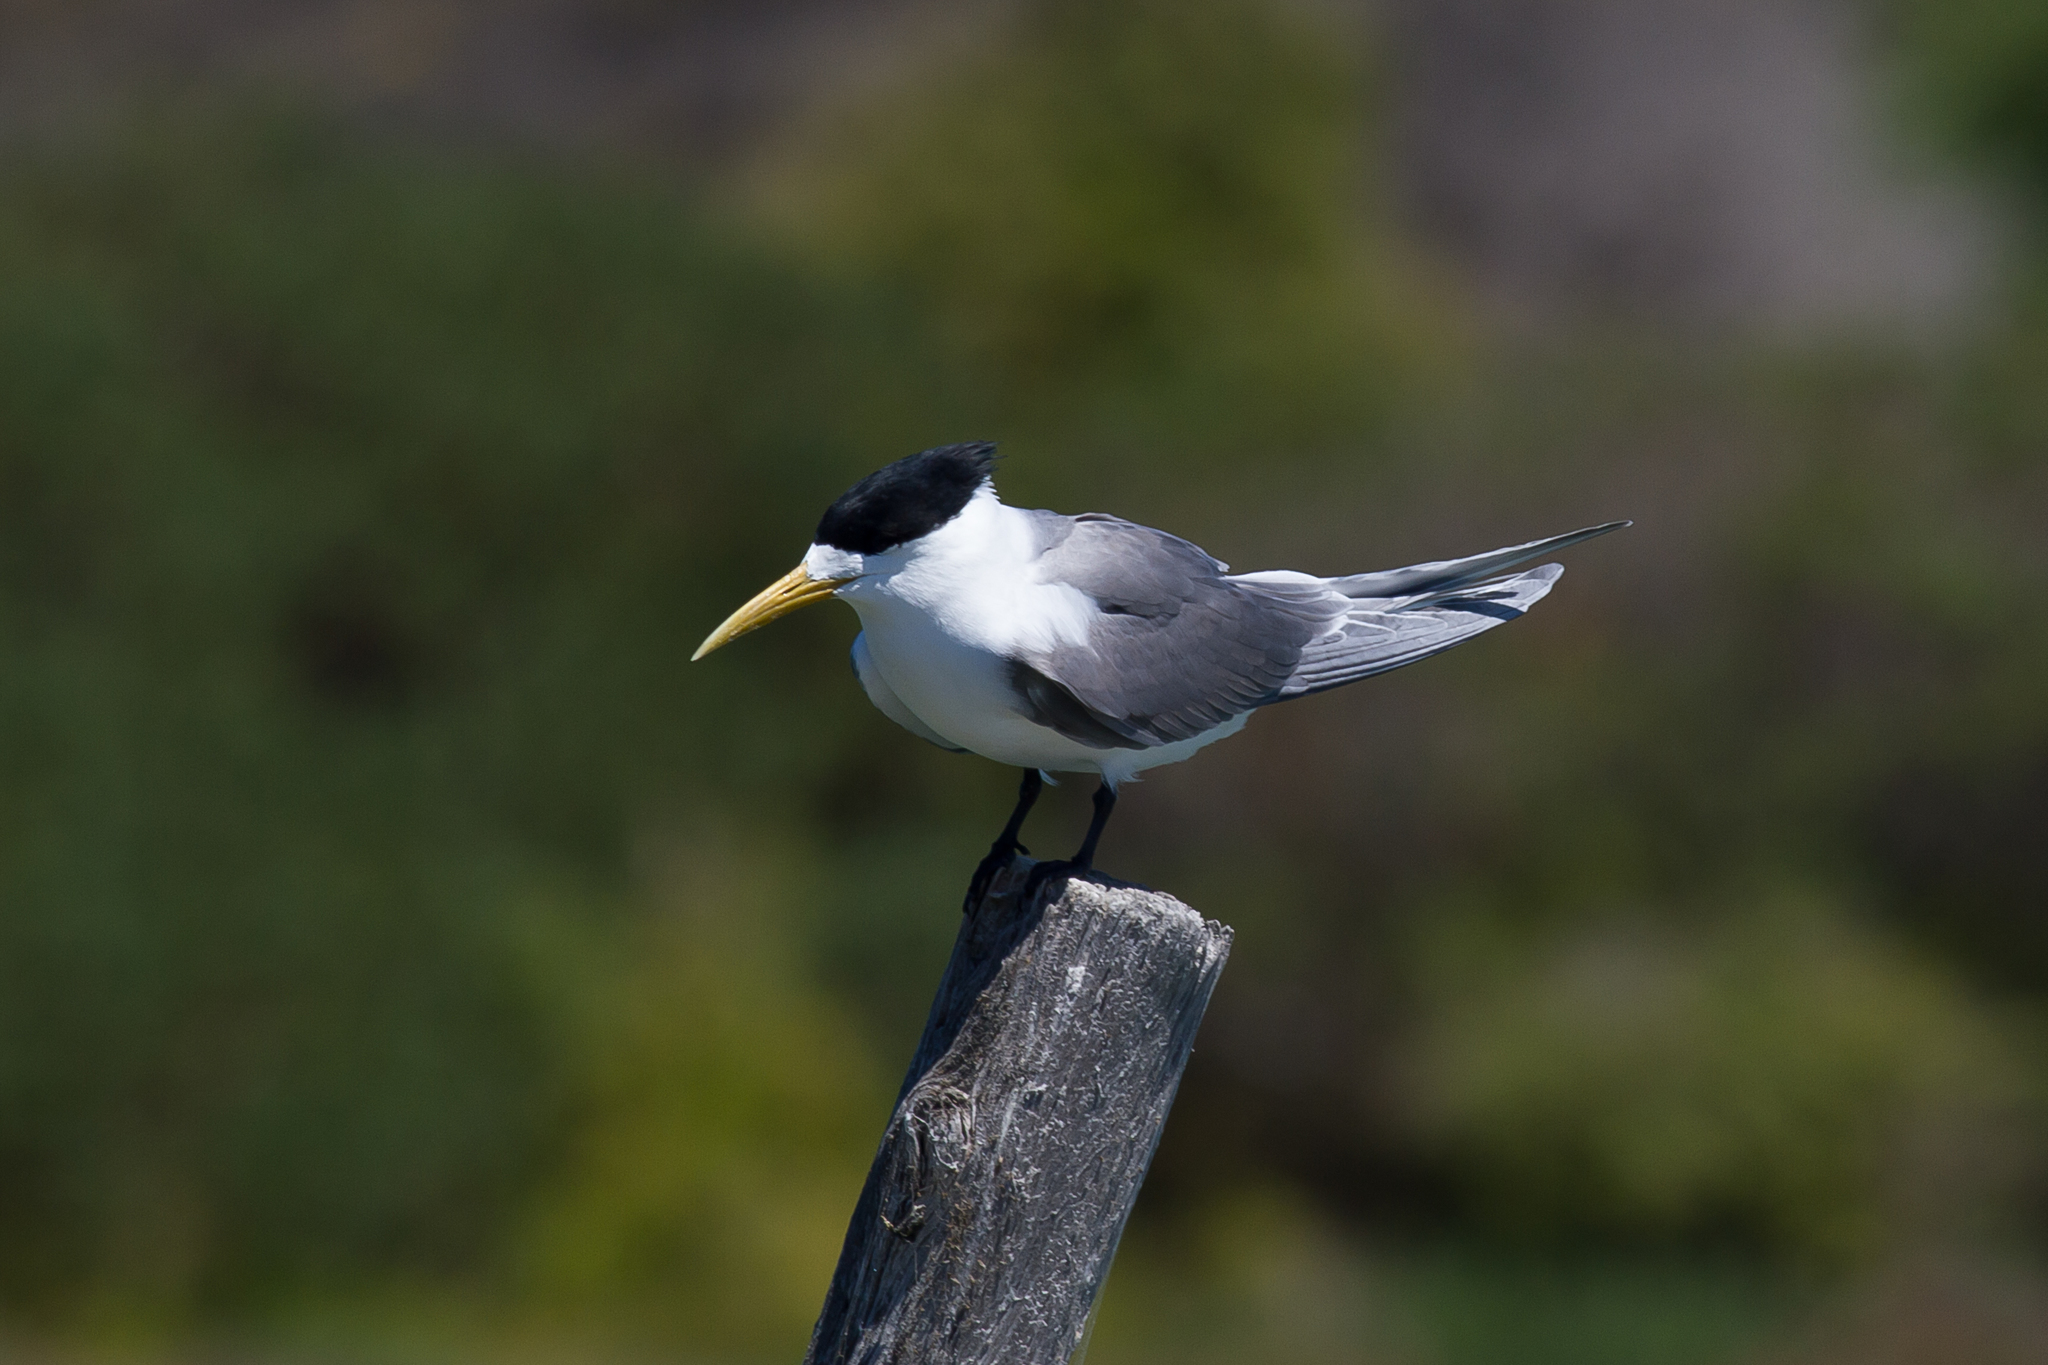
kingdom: Animalia
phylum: Chordata
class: Aves
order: Charadriiformes
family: Laridae
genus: Thalasseus
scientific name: Thalasseus bergii
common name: Greater crested tern
